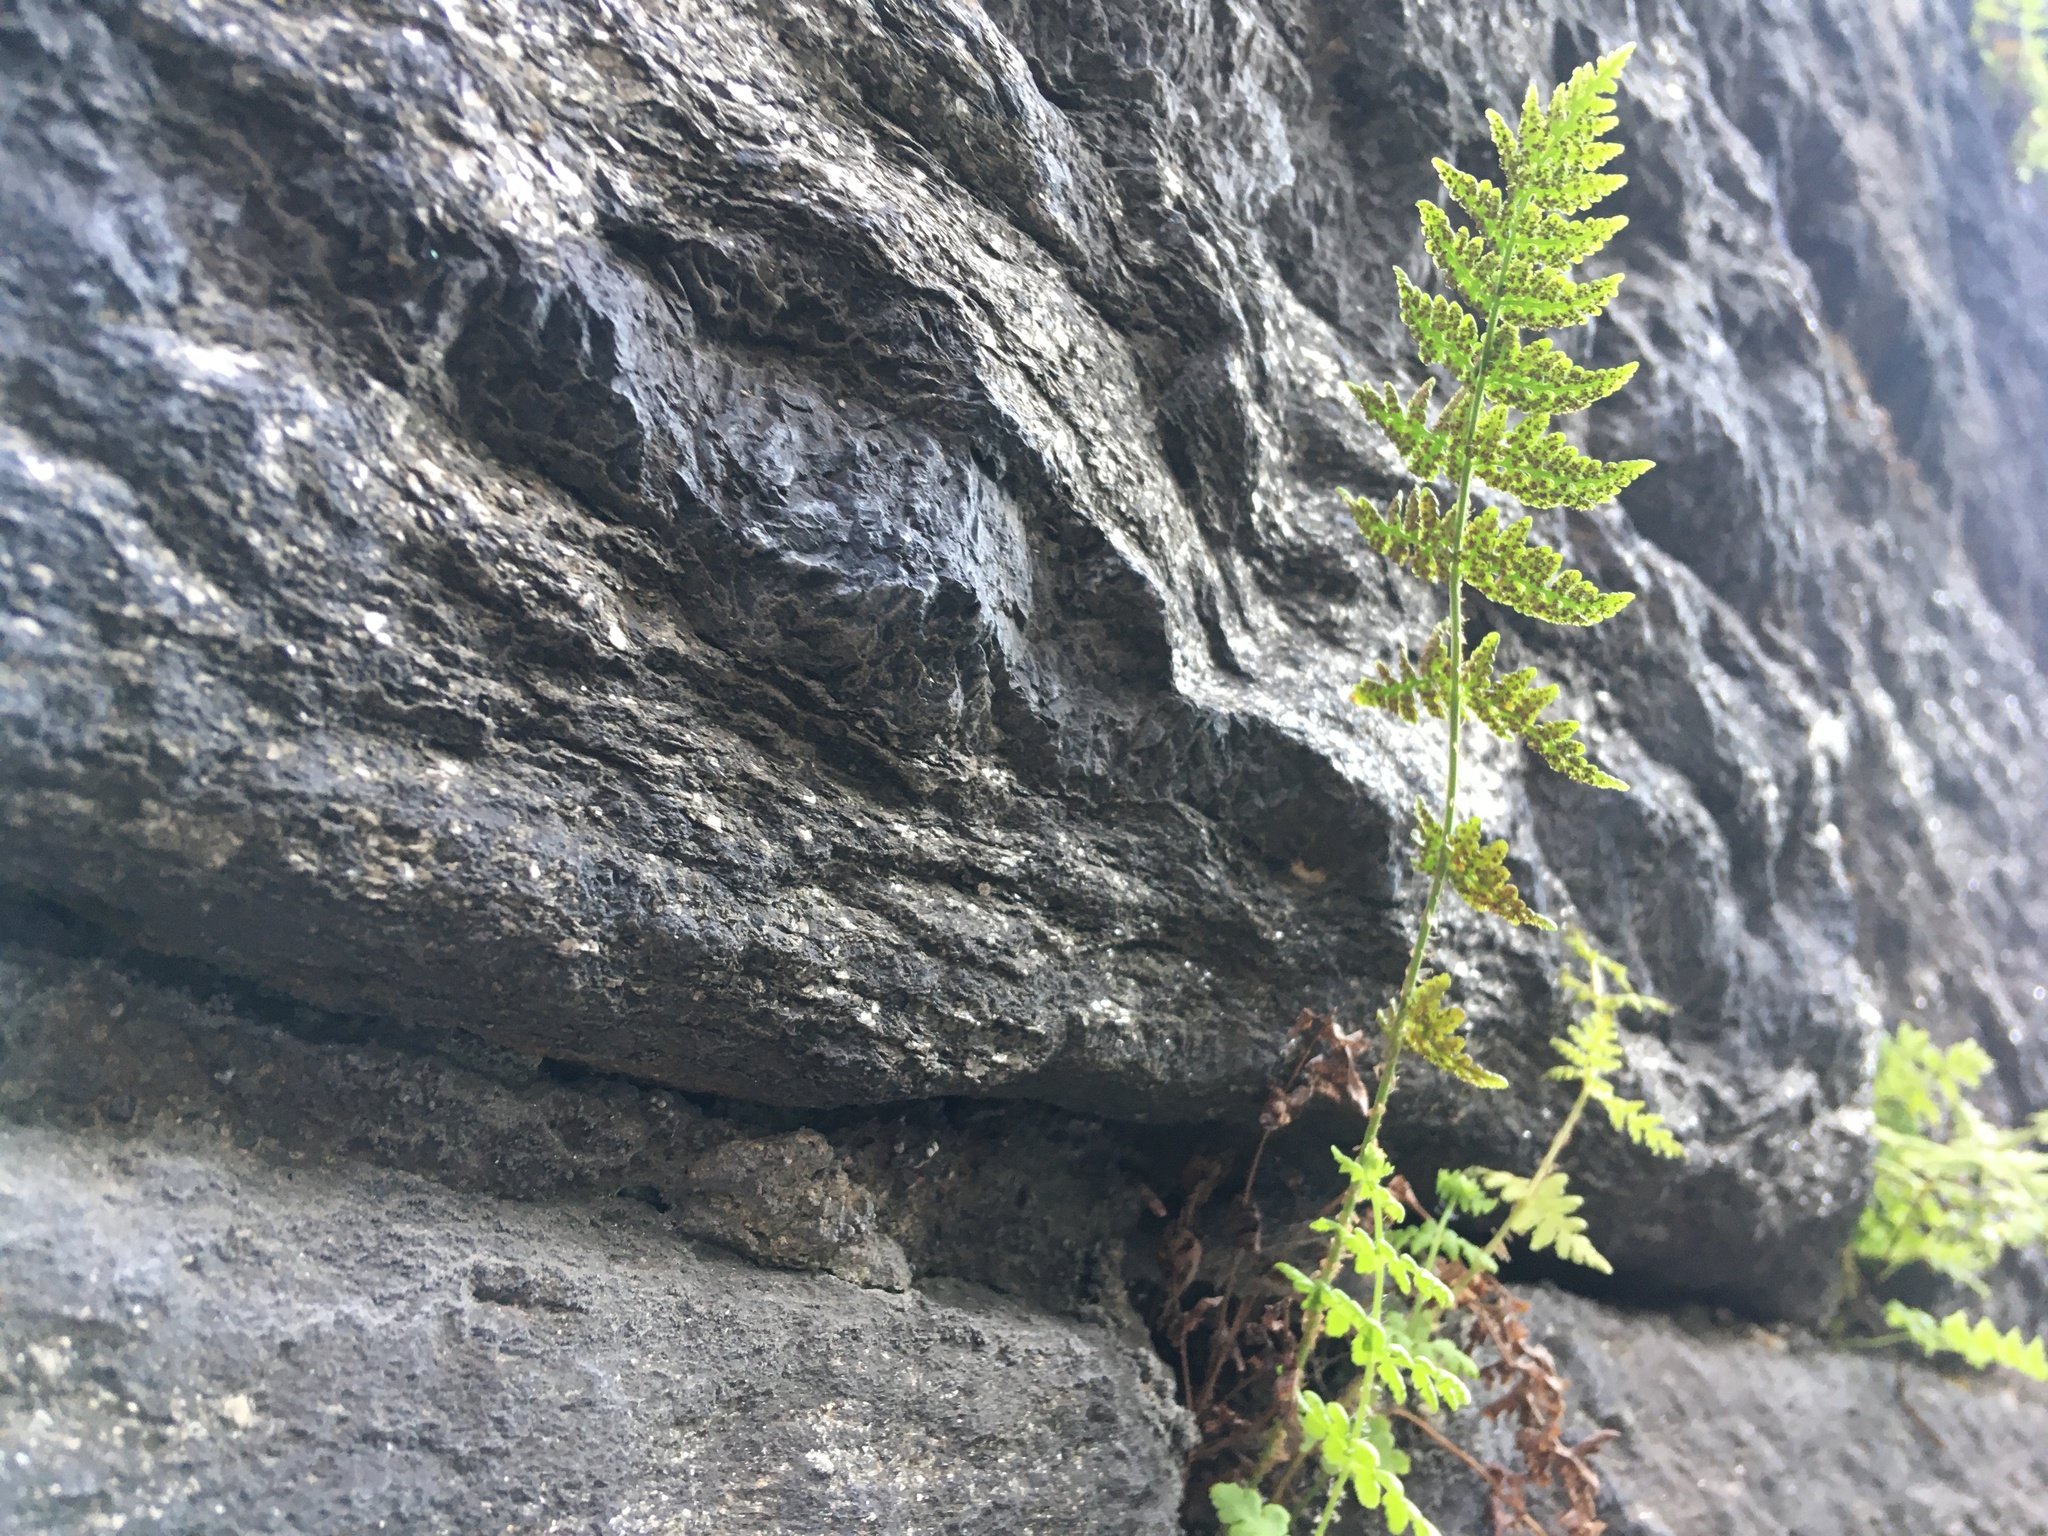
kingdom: Plantae
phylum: Tracheophyta
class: Polypodiopsida
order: Polypodiales
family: Woodsiaceae
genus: Physematium
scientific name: Physematium obtusum
